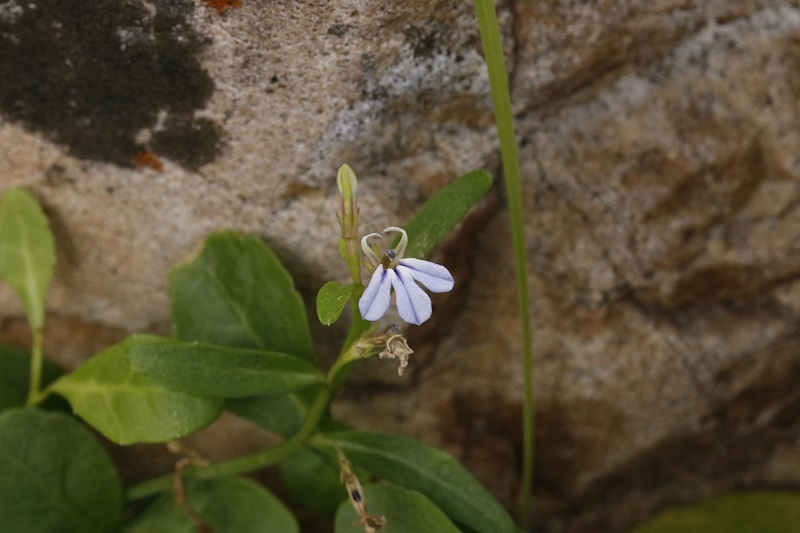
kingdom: Plantae
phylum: Tracheophyta
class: Magnoliopsida
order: Asterales
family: Campanulaceae
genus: Lobelia
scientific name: Lobelia anceps
